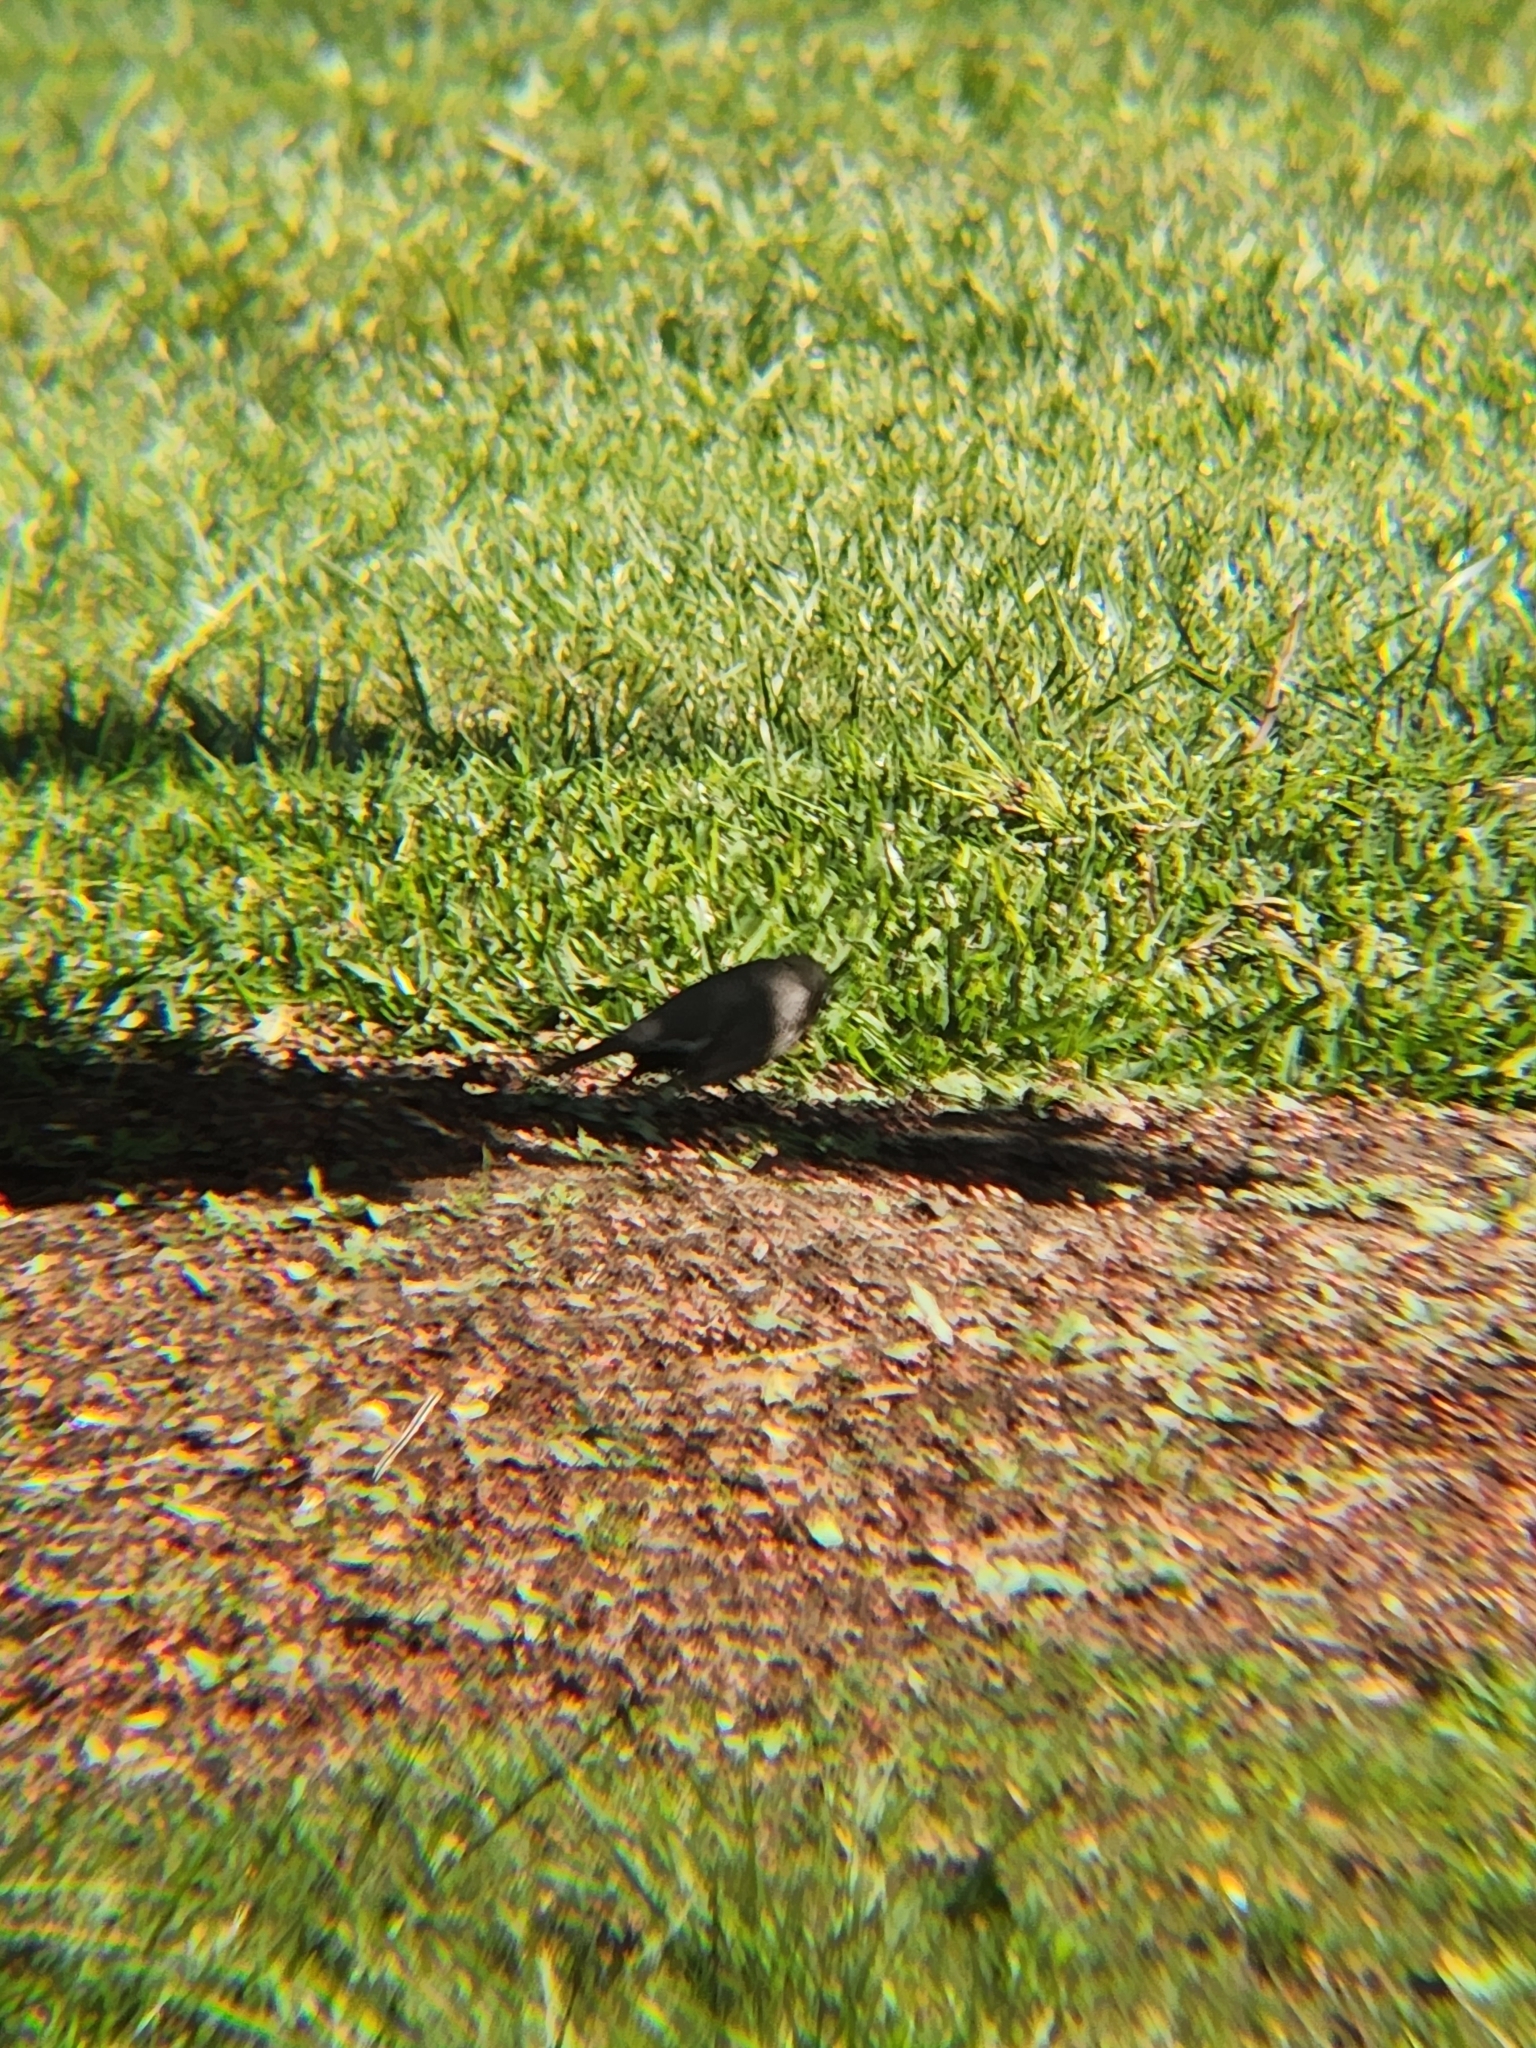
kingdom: Animalia
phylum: Chordata
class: Aves
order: Passeriformes
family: Turdidae
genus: Turdus
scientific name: Turdus migratorius
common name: American robin
